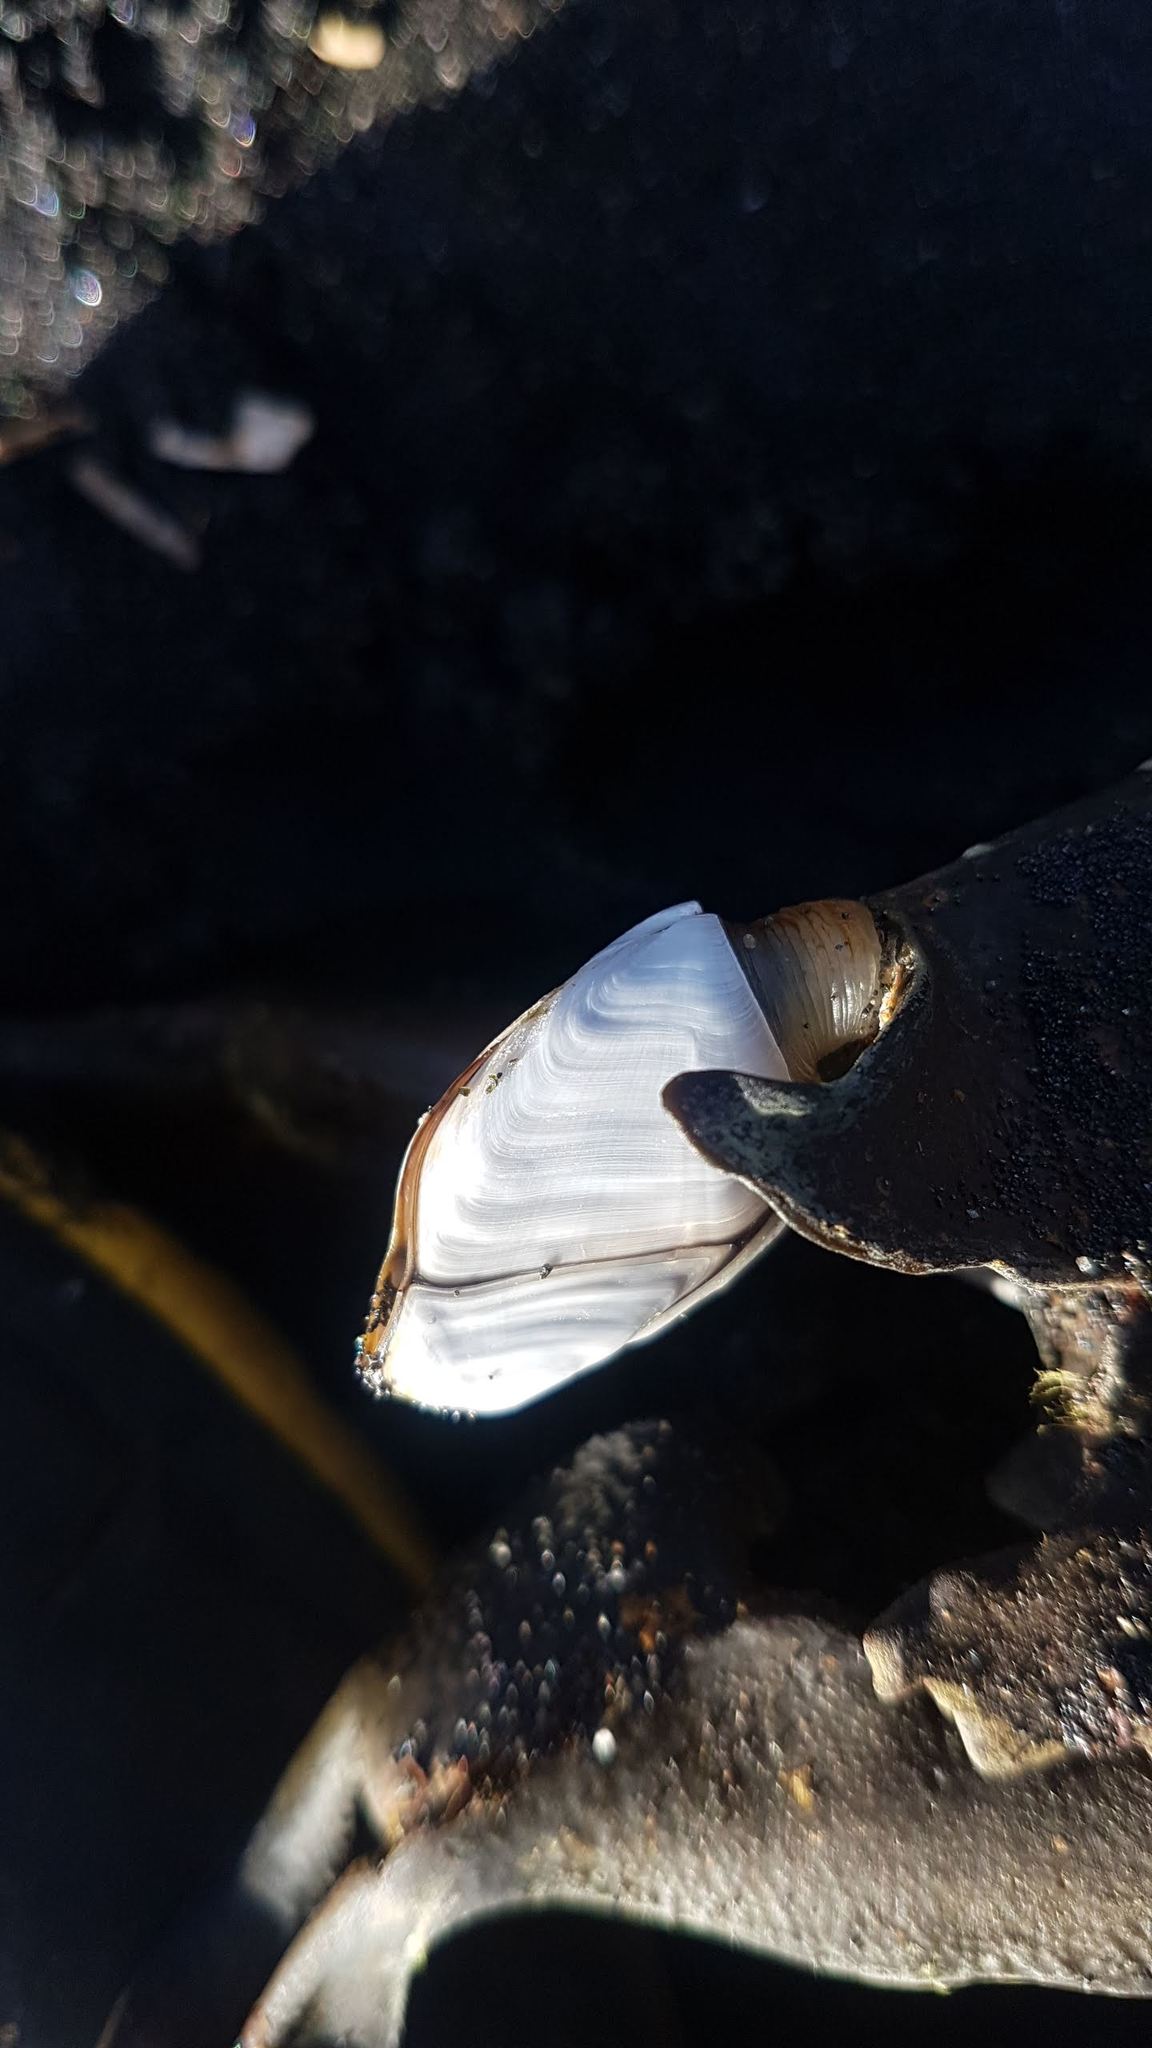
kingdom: Animalia
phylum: Arthropoda
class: Maxillopoda
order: Pedunculata
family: Lepadidae
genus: Lepas
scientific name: Lepas australis
